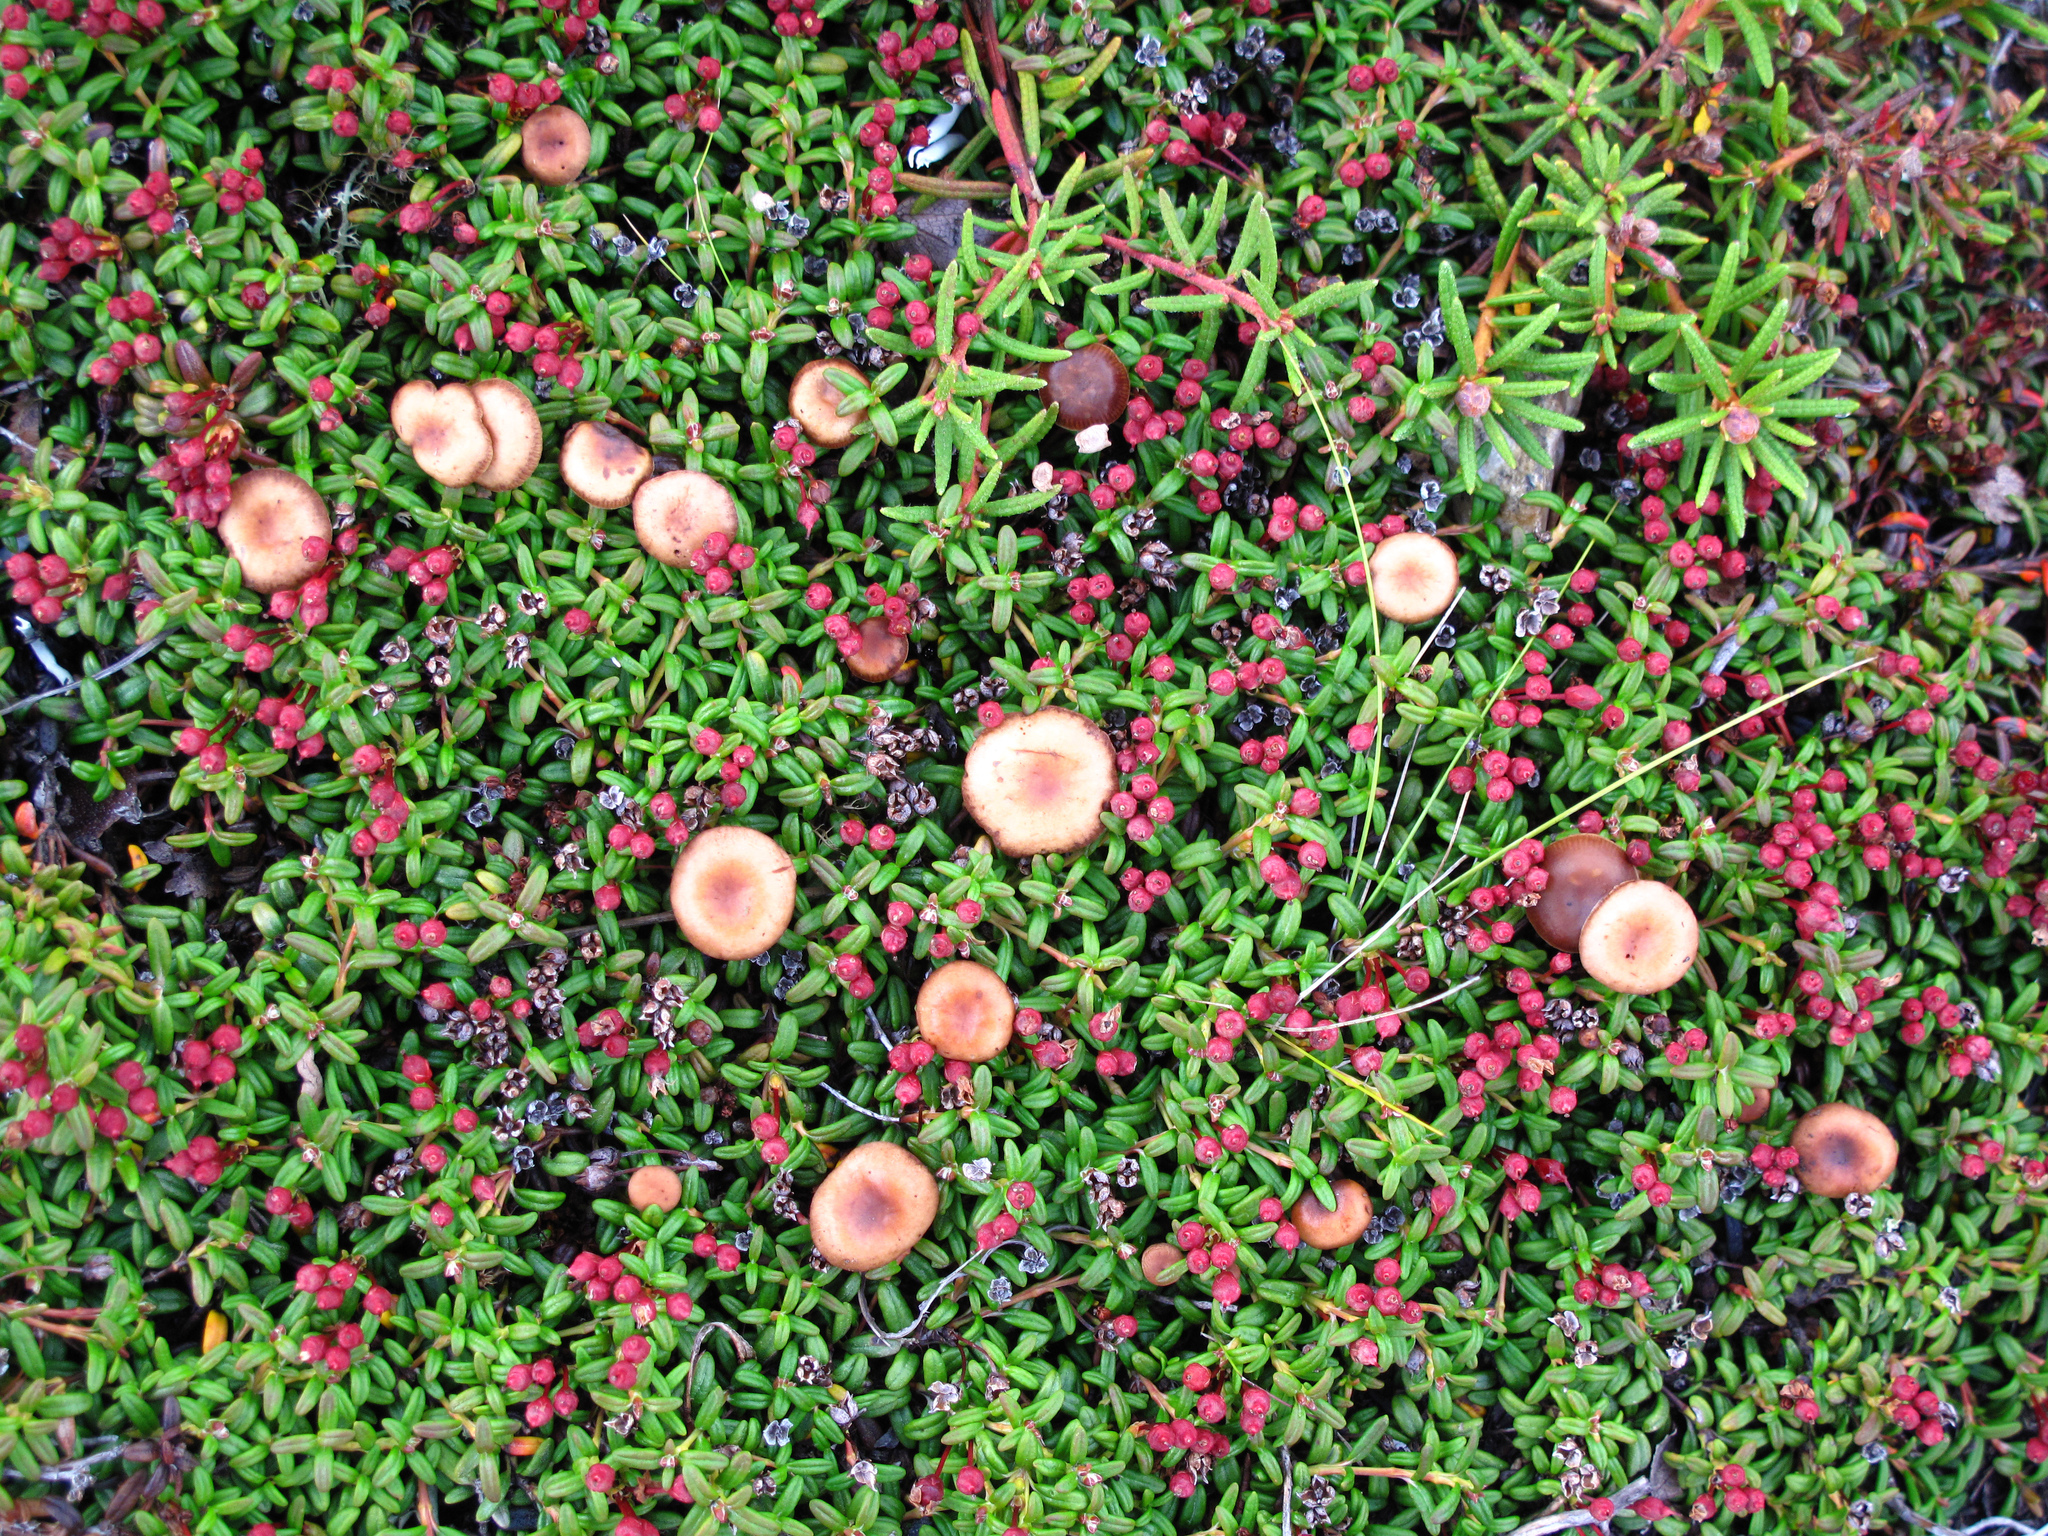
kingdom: Plantae
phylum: Tracheophyta
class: Magnoliopsida
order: Ericales
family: Ericaceae
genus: Kalmia
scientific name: Kalmia procumbens
